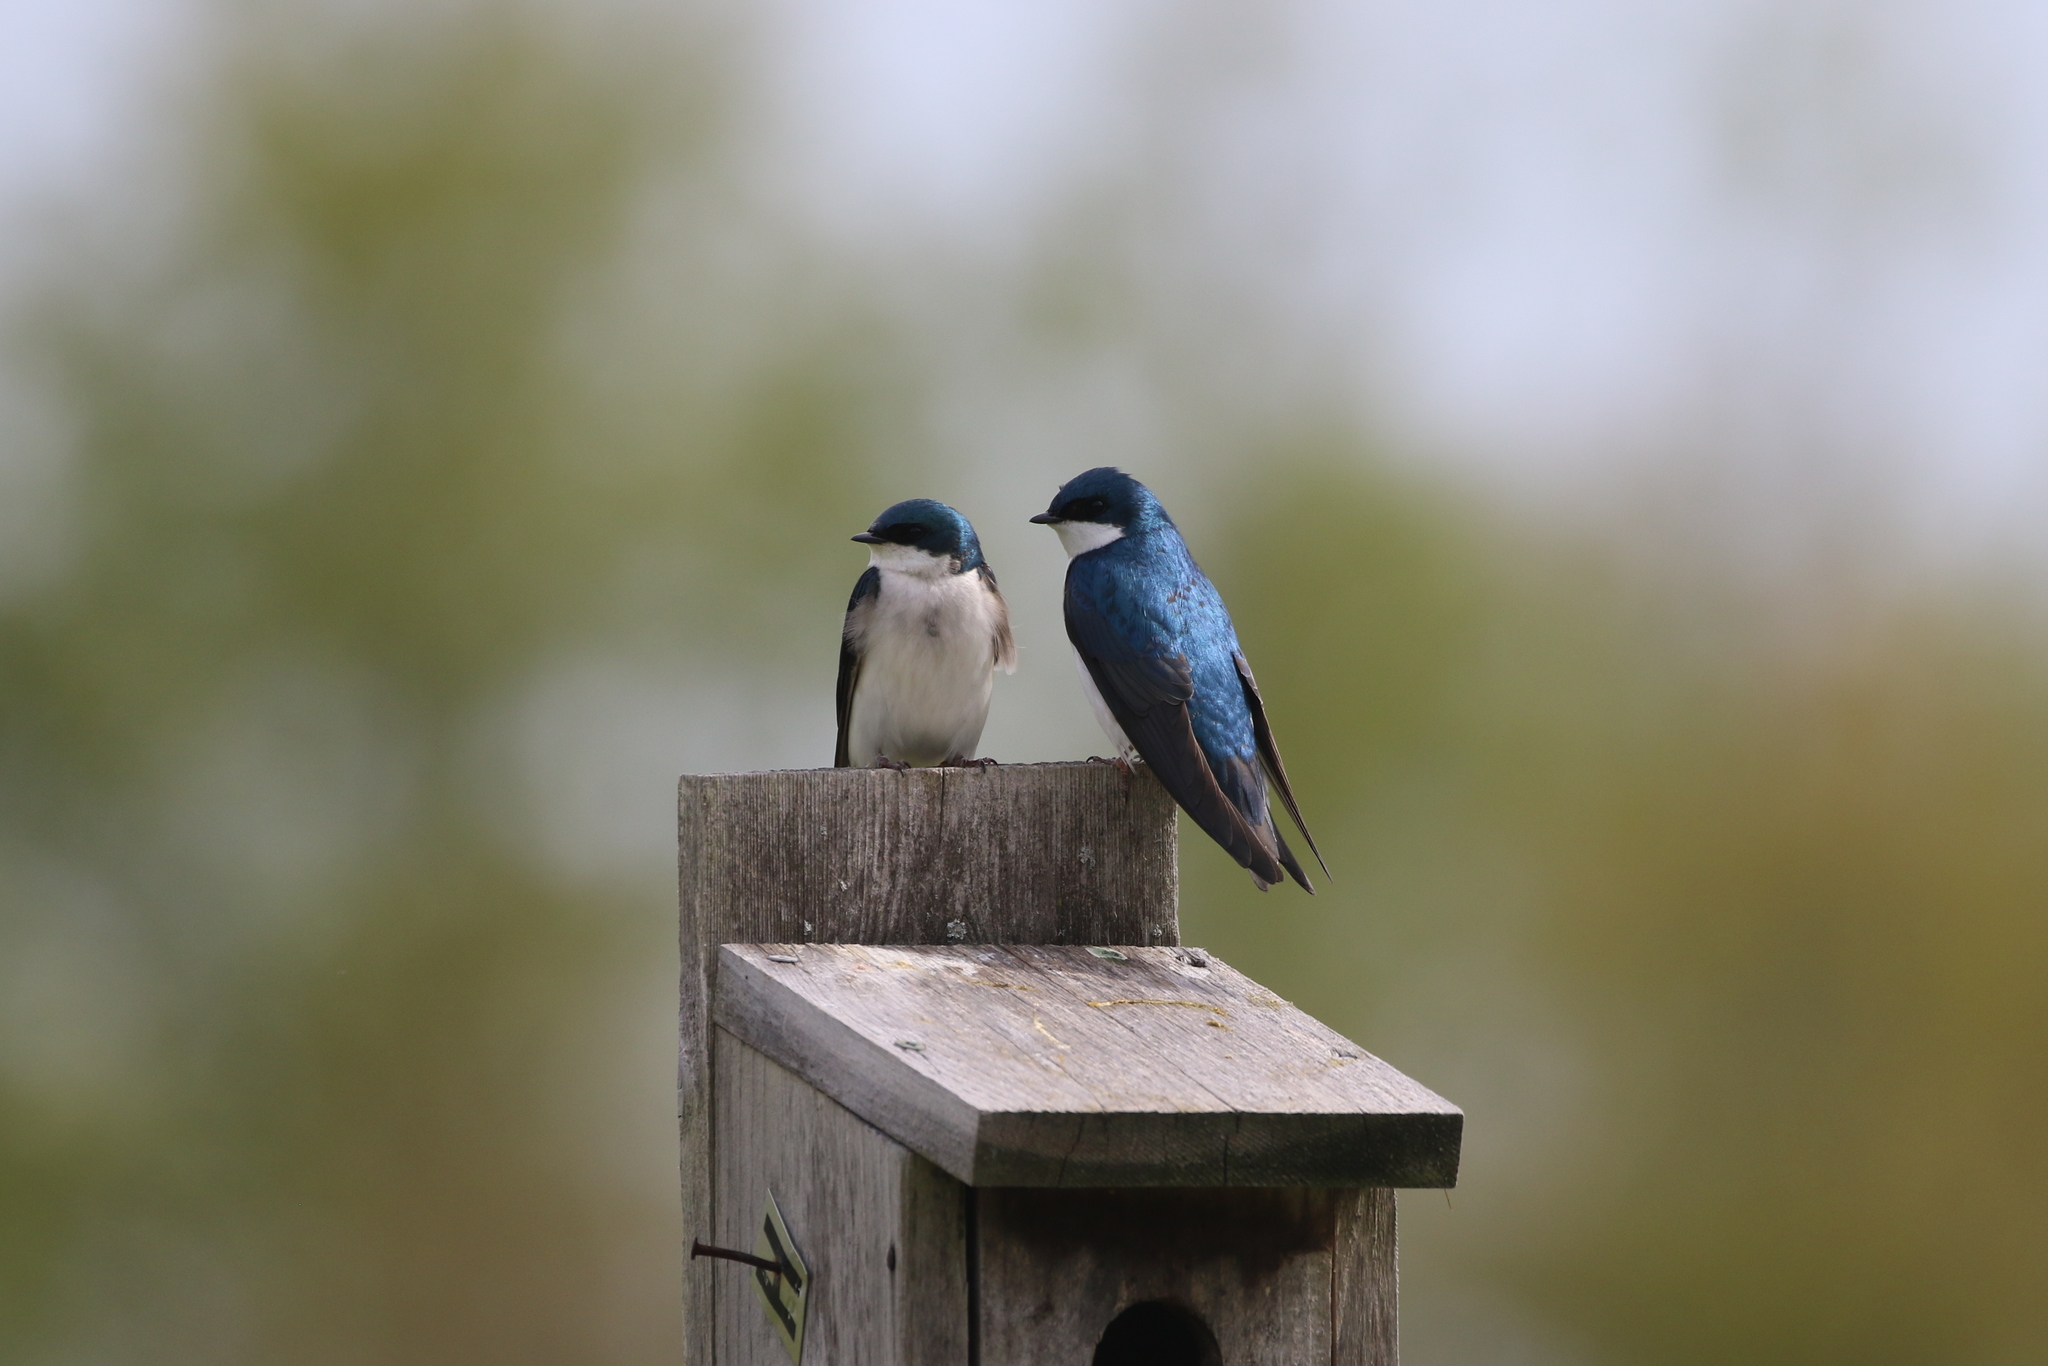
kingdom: Animalia
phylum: Chordata
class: Aves
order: Passeriformes
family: Hirundinidae
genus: Tachycineta
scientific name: Tachycineta bicolor
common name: Tree swallow
